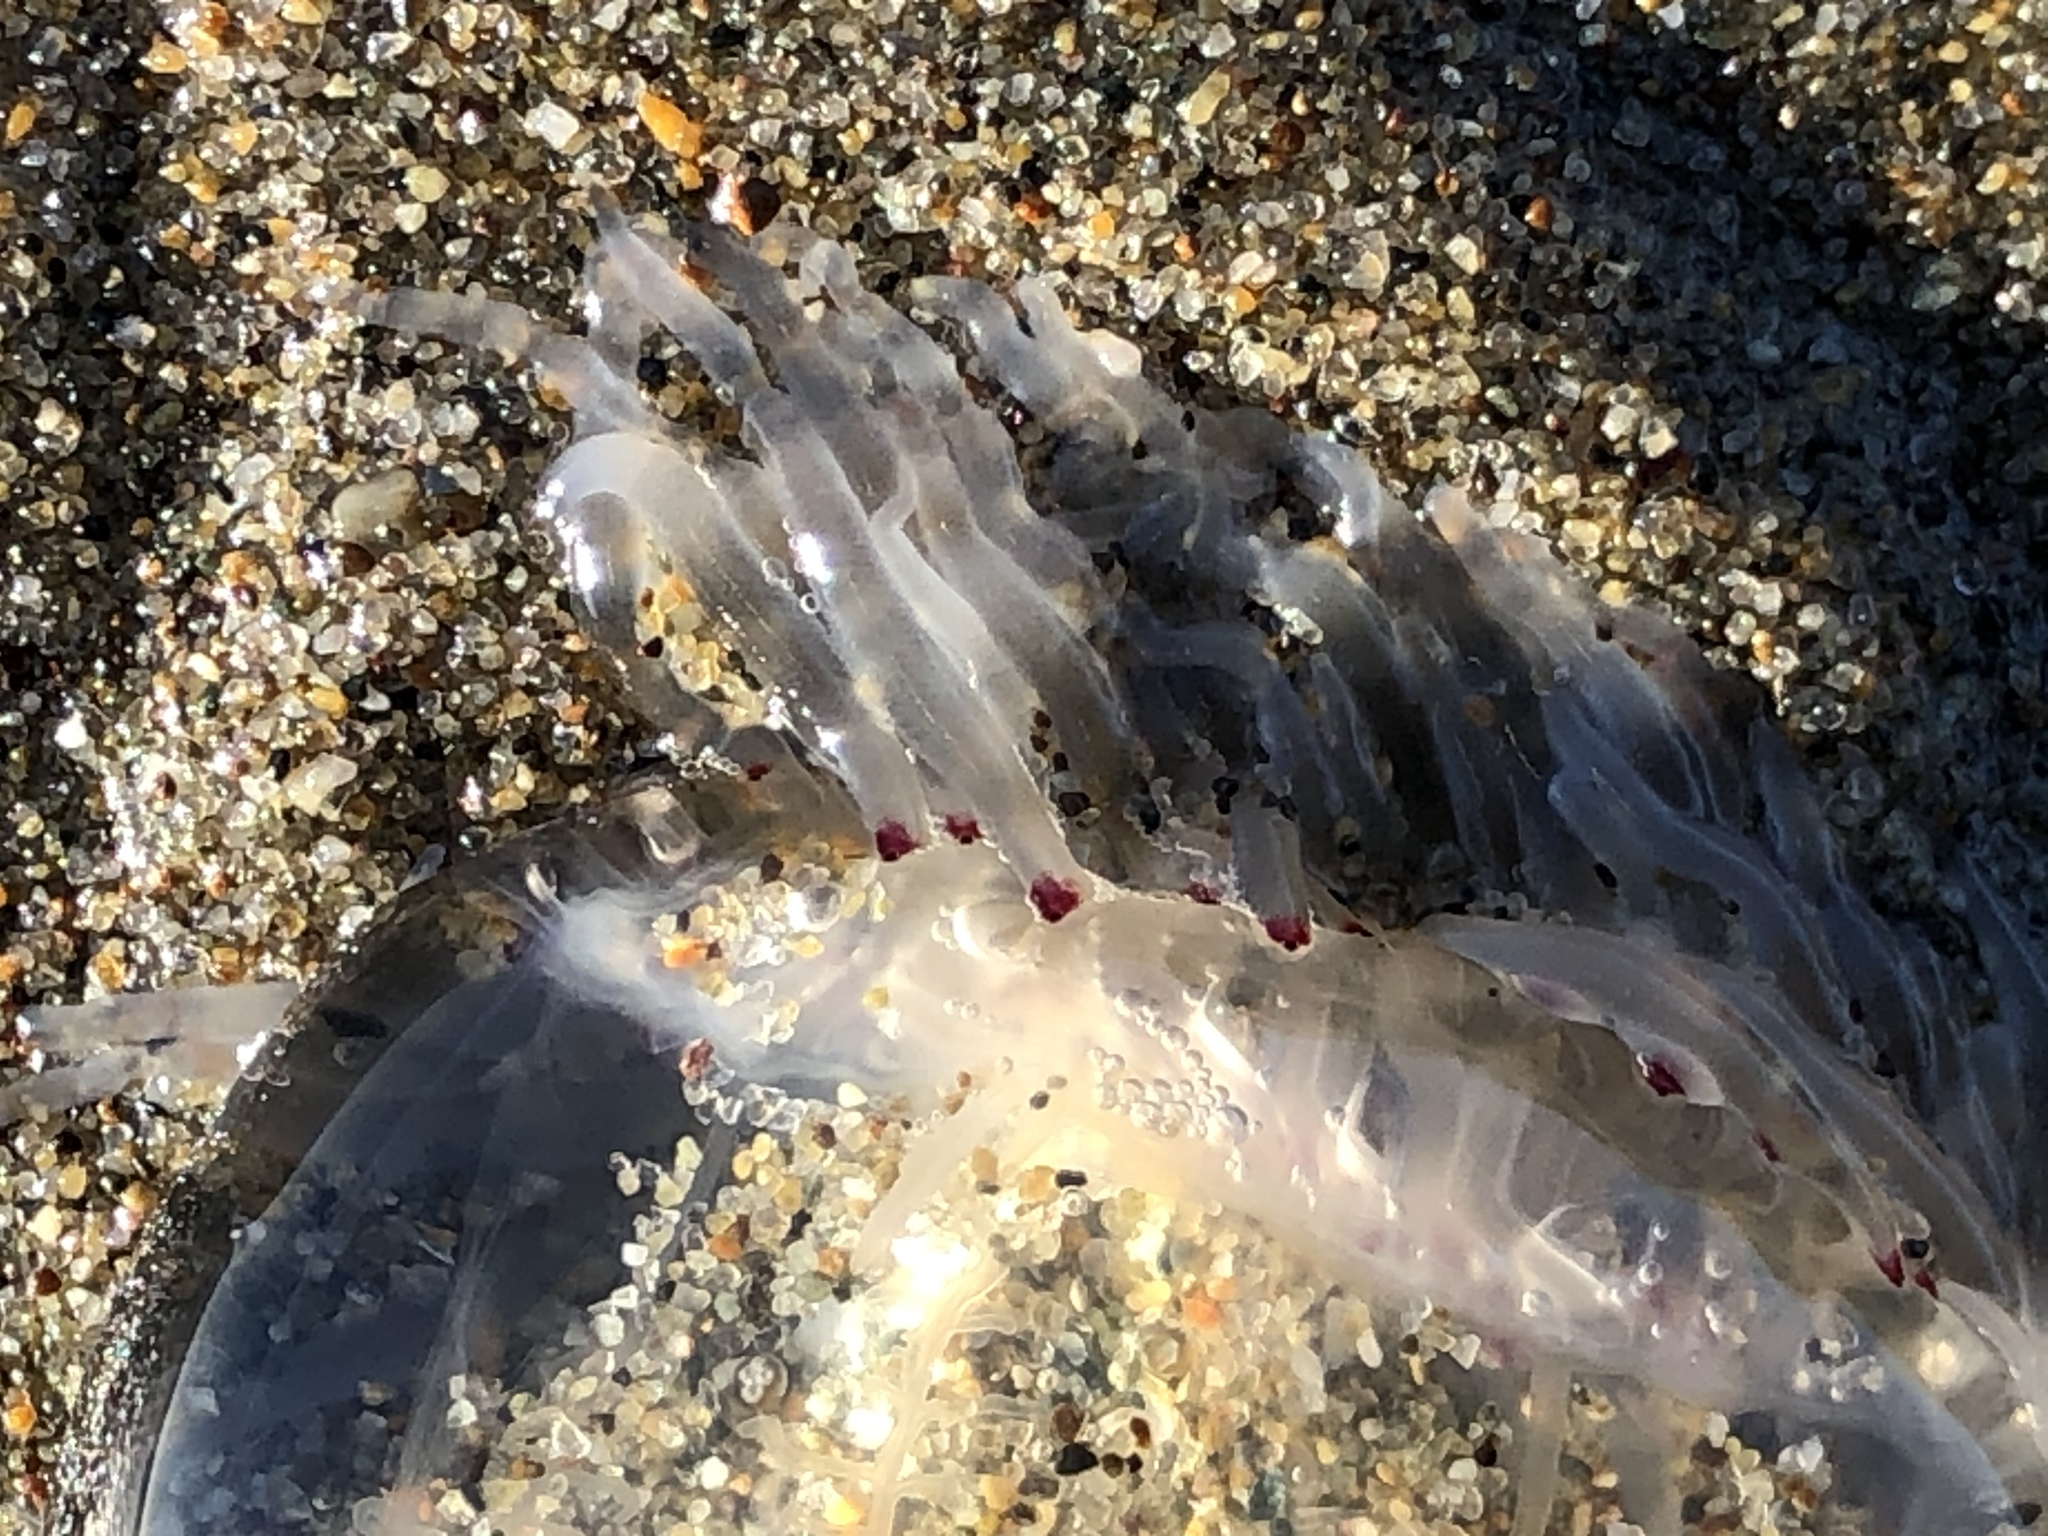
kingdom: Animalia
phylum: Cnidaria
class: Hydrozoa
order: Anthoathecata
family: Corynidae
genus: Polyorchis
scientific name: Polyorchis penicillatus
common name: Penicillate jellyfish
